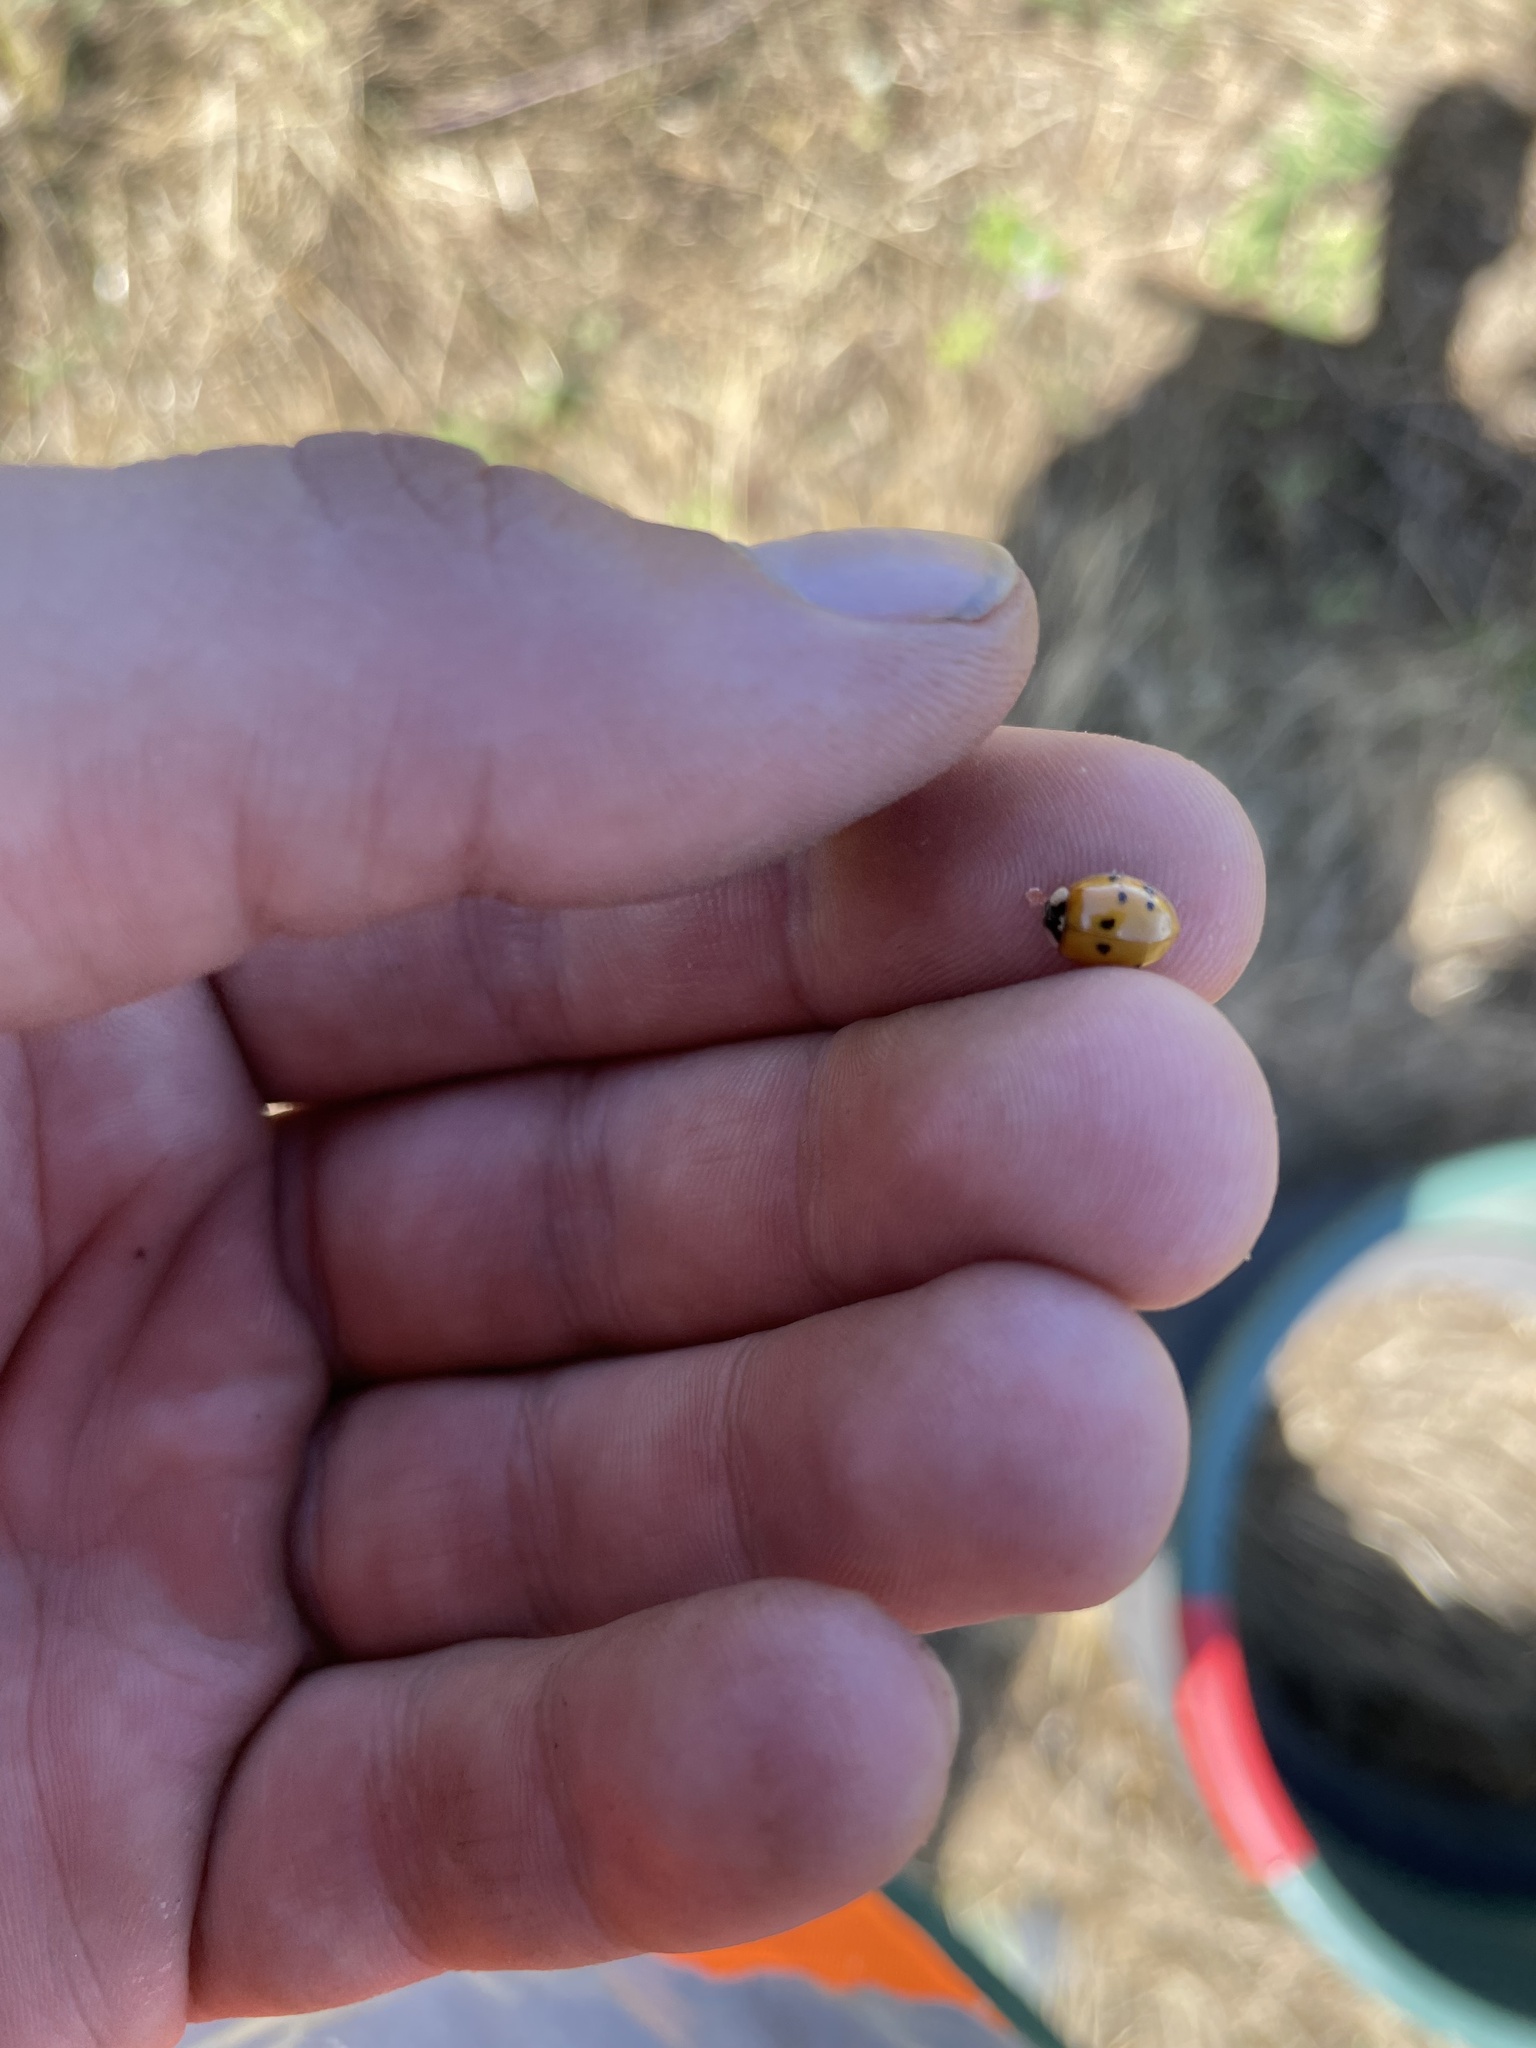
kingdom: Animalia
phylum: Arthropoda
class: Insecta
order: Coleoptera
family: Coccinellidae
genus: Harmonia
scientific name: Harmonia axyridis
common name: Harlequin ladybird
